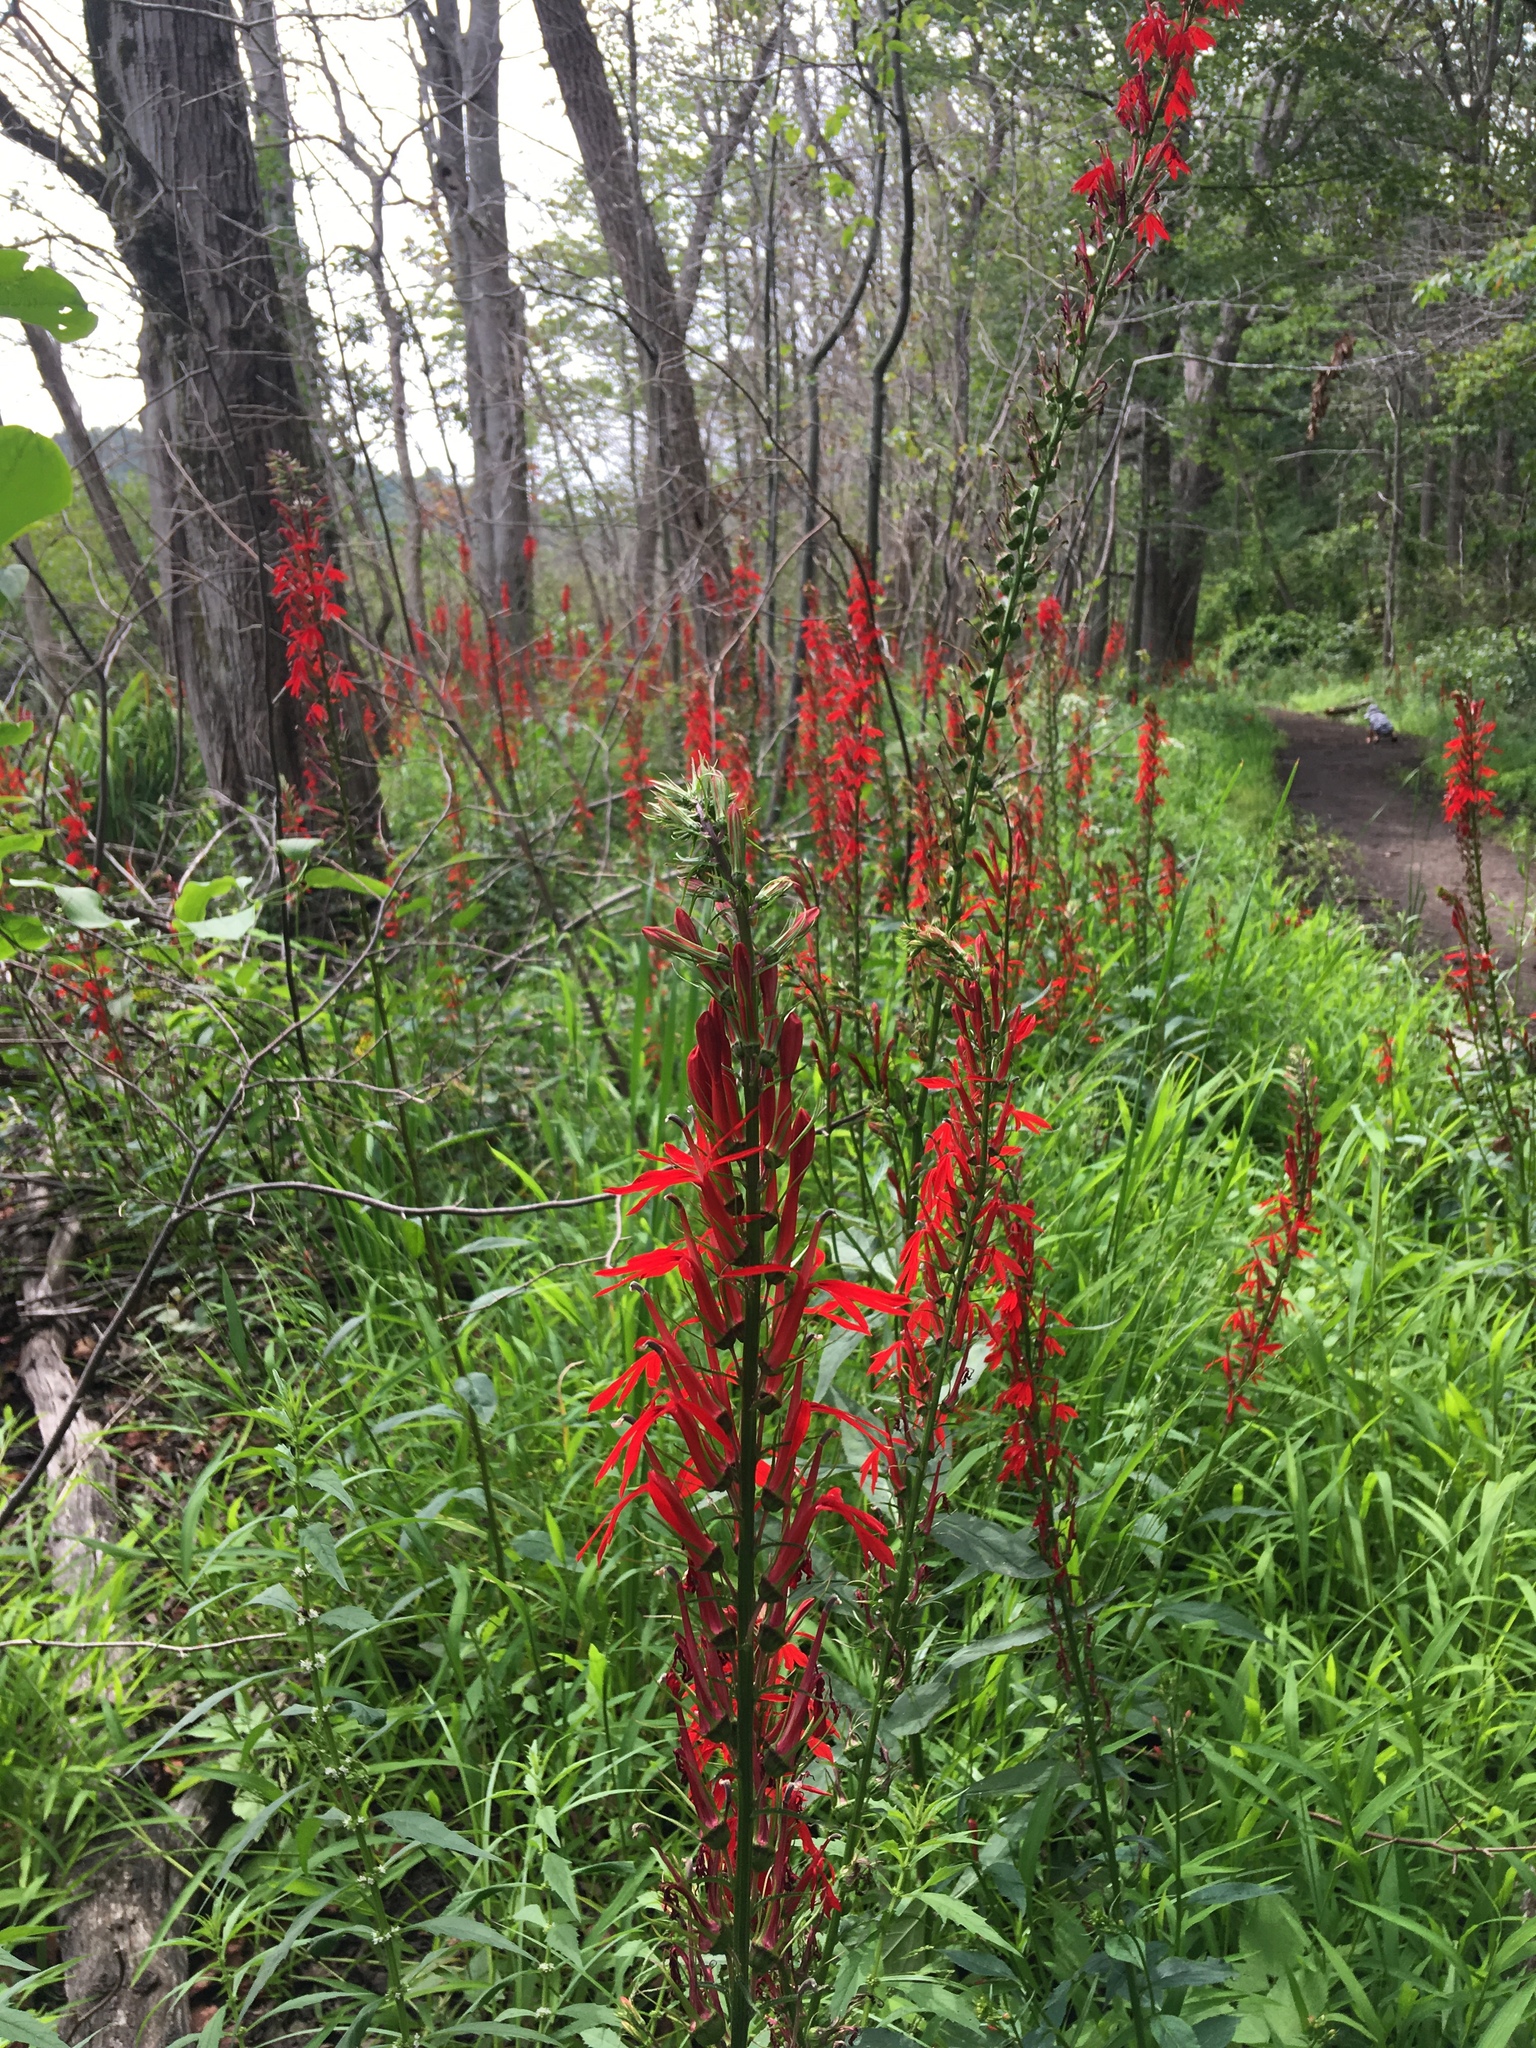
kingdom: Plantae
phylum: Tracheophyta
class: Magnoliopsida
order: Asterales
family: Campanulaceae
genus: Lobelia
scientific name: Lobelia cardinalis
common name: Cardinal flower
